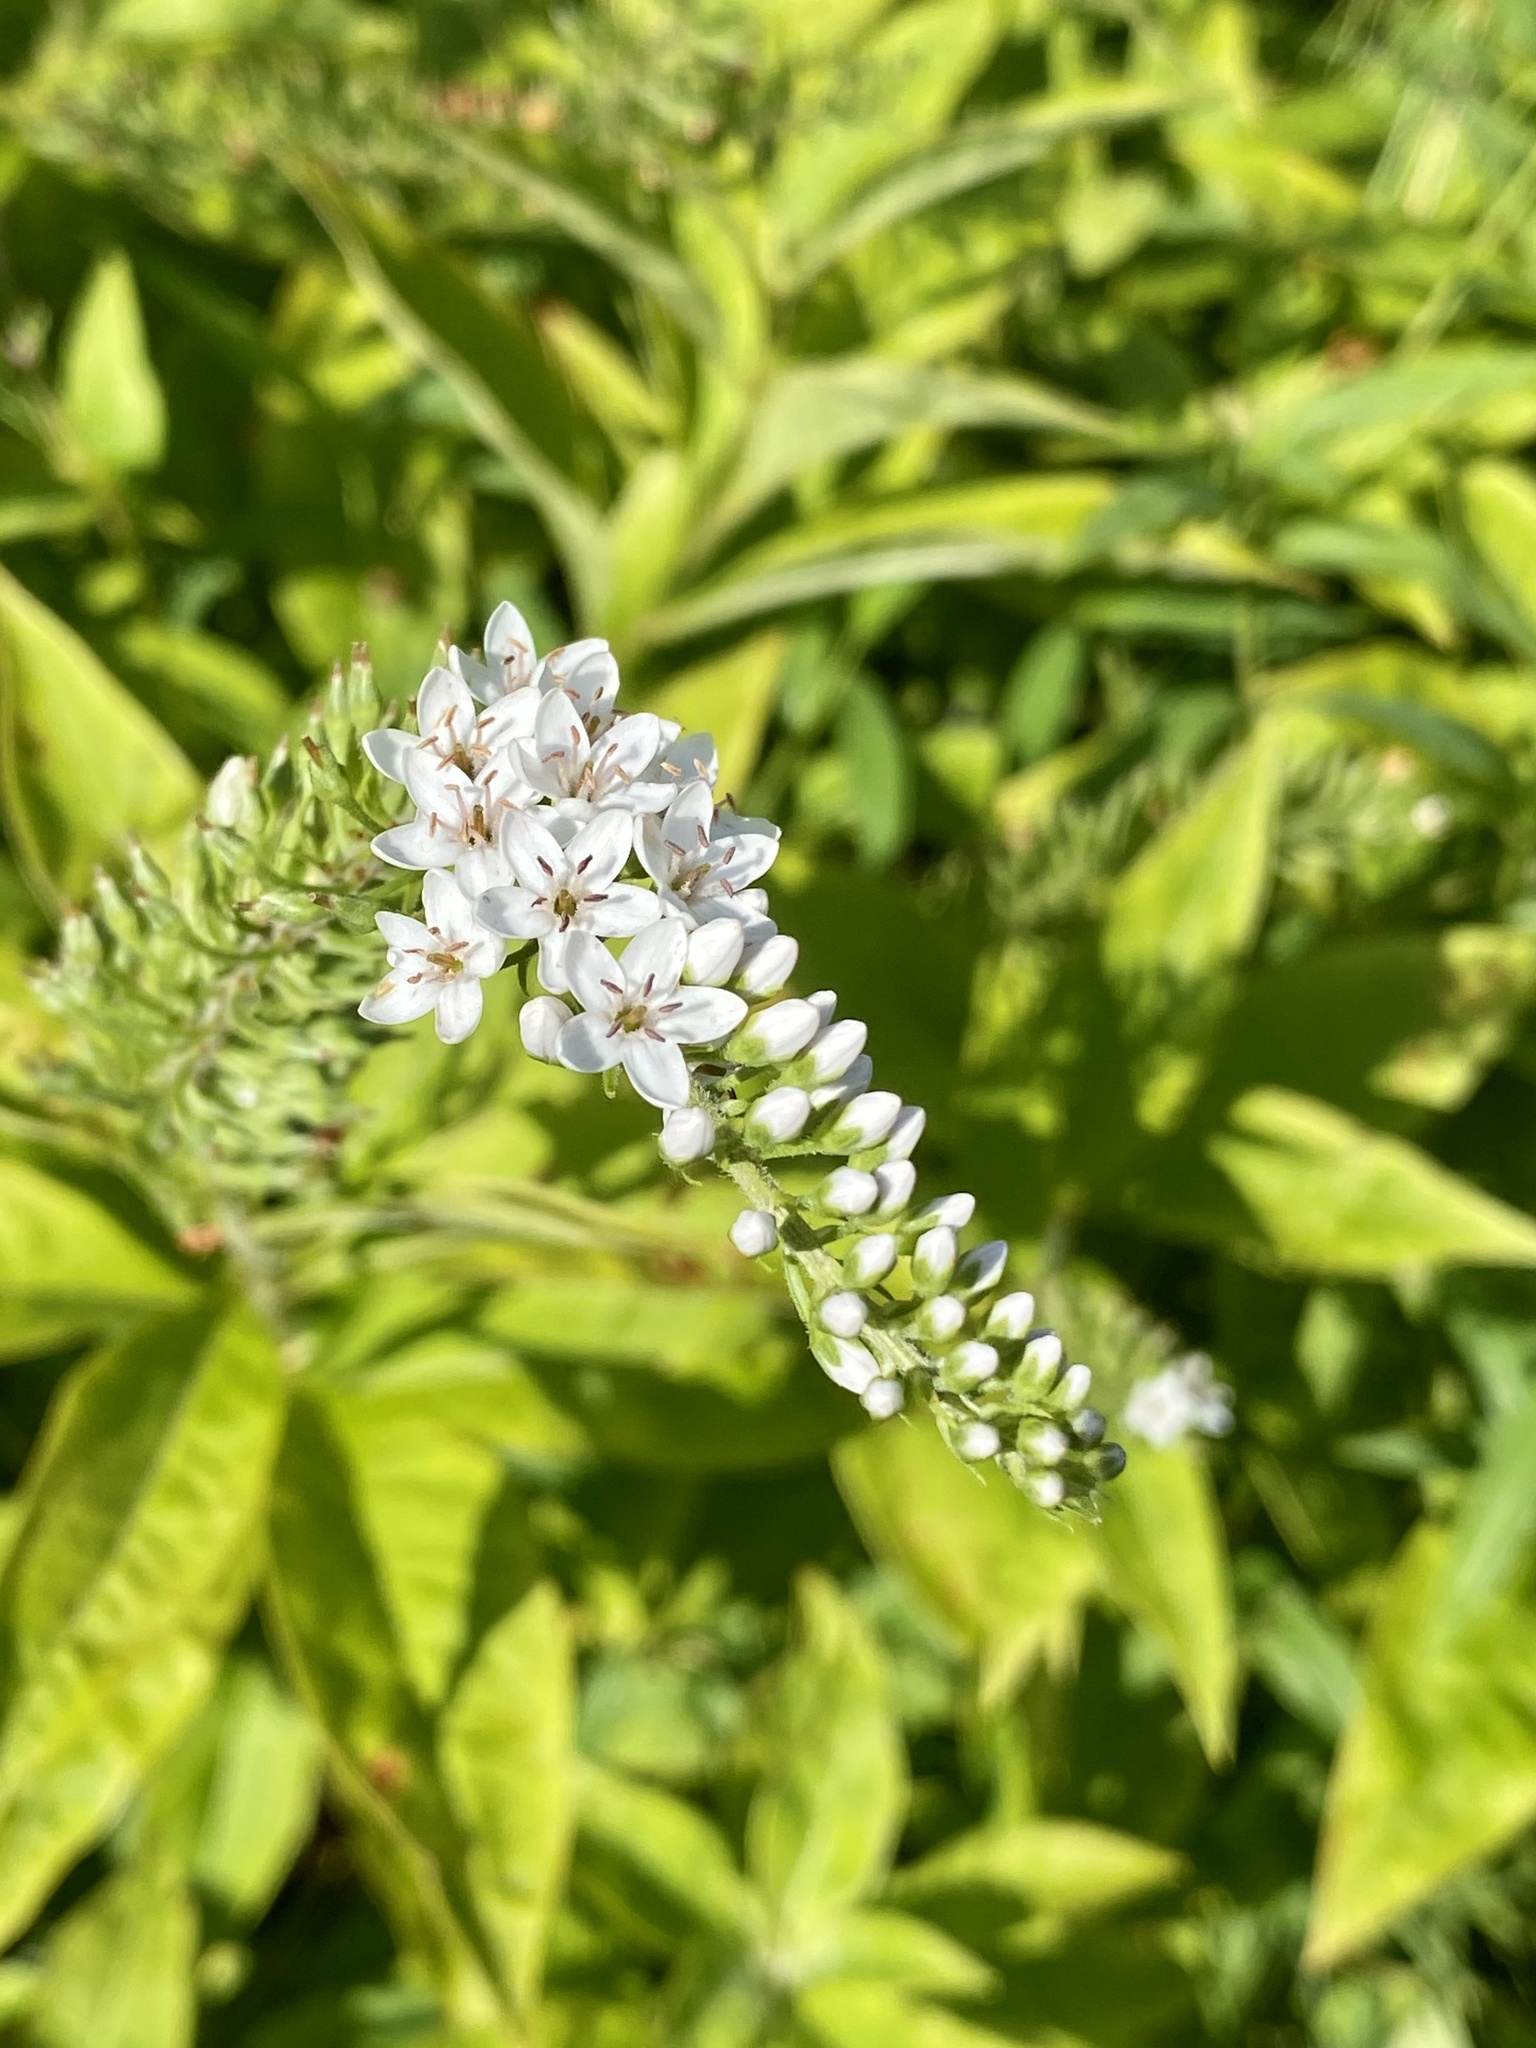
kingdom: Plantae
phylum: Tracheophyta
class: Magnoliopsida
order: Ericales
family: Primulaceae
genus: Lysimachia
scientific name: Lysimachia clethroides
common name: Gooseneck loosestrife
